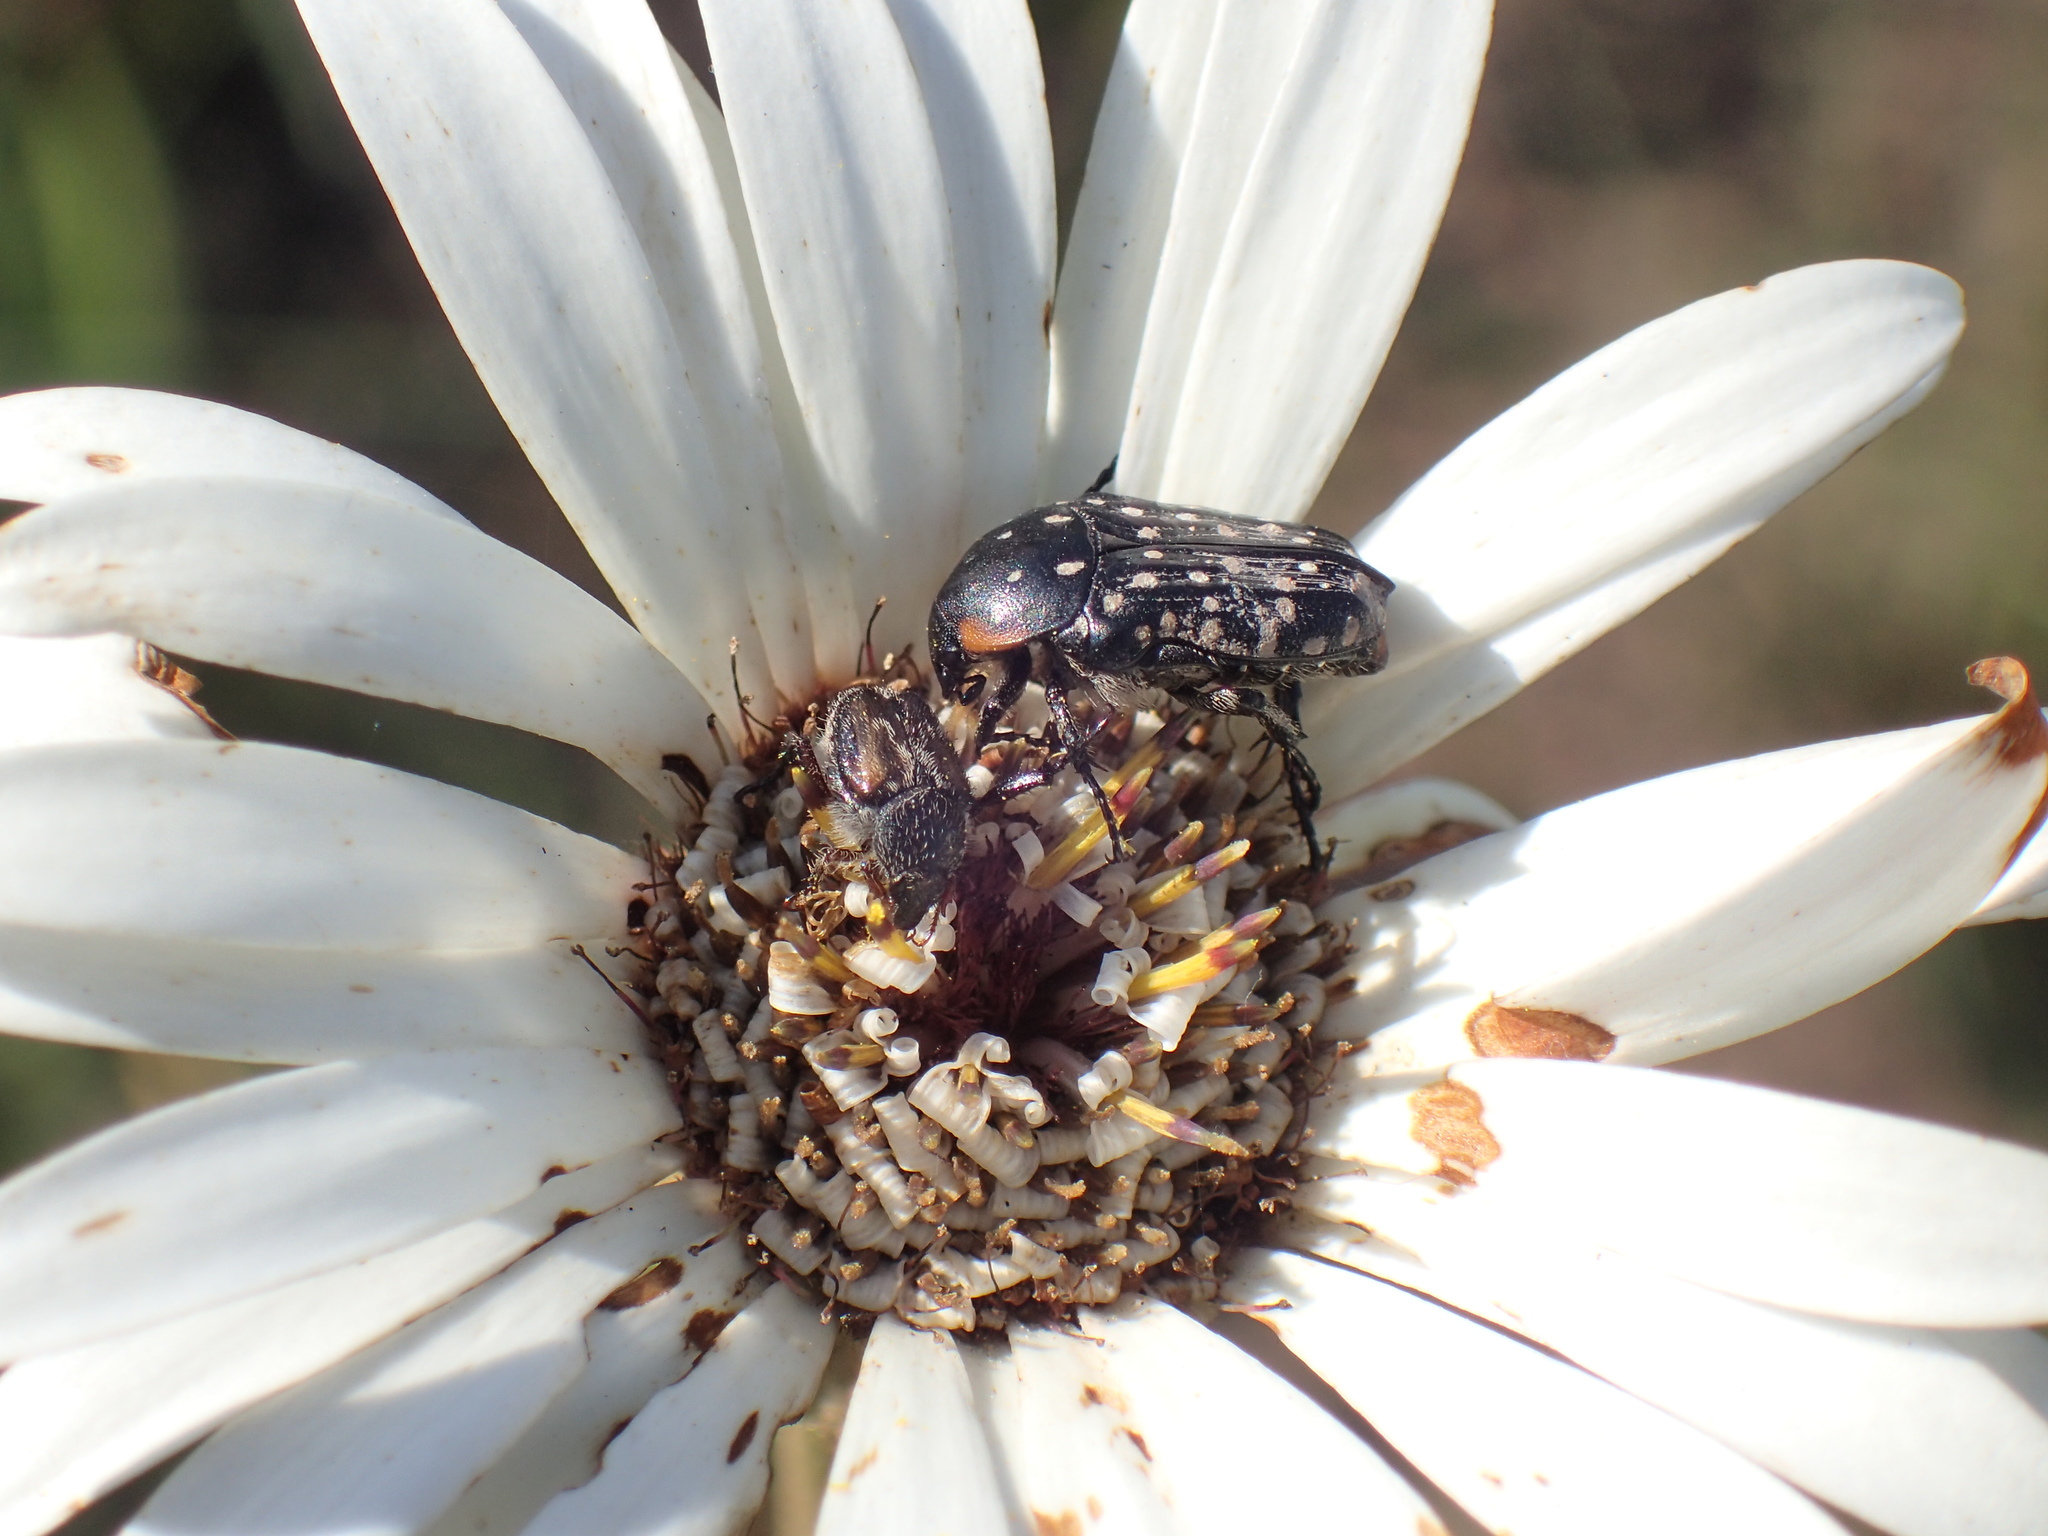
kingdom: Animalia
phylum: Arthropoda
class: Insecta
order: Coleoptera
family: Scarabaeidae
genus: Oxythyrea
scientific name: Oxythyrea
